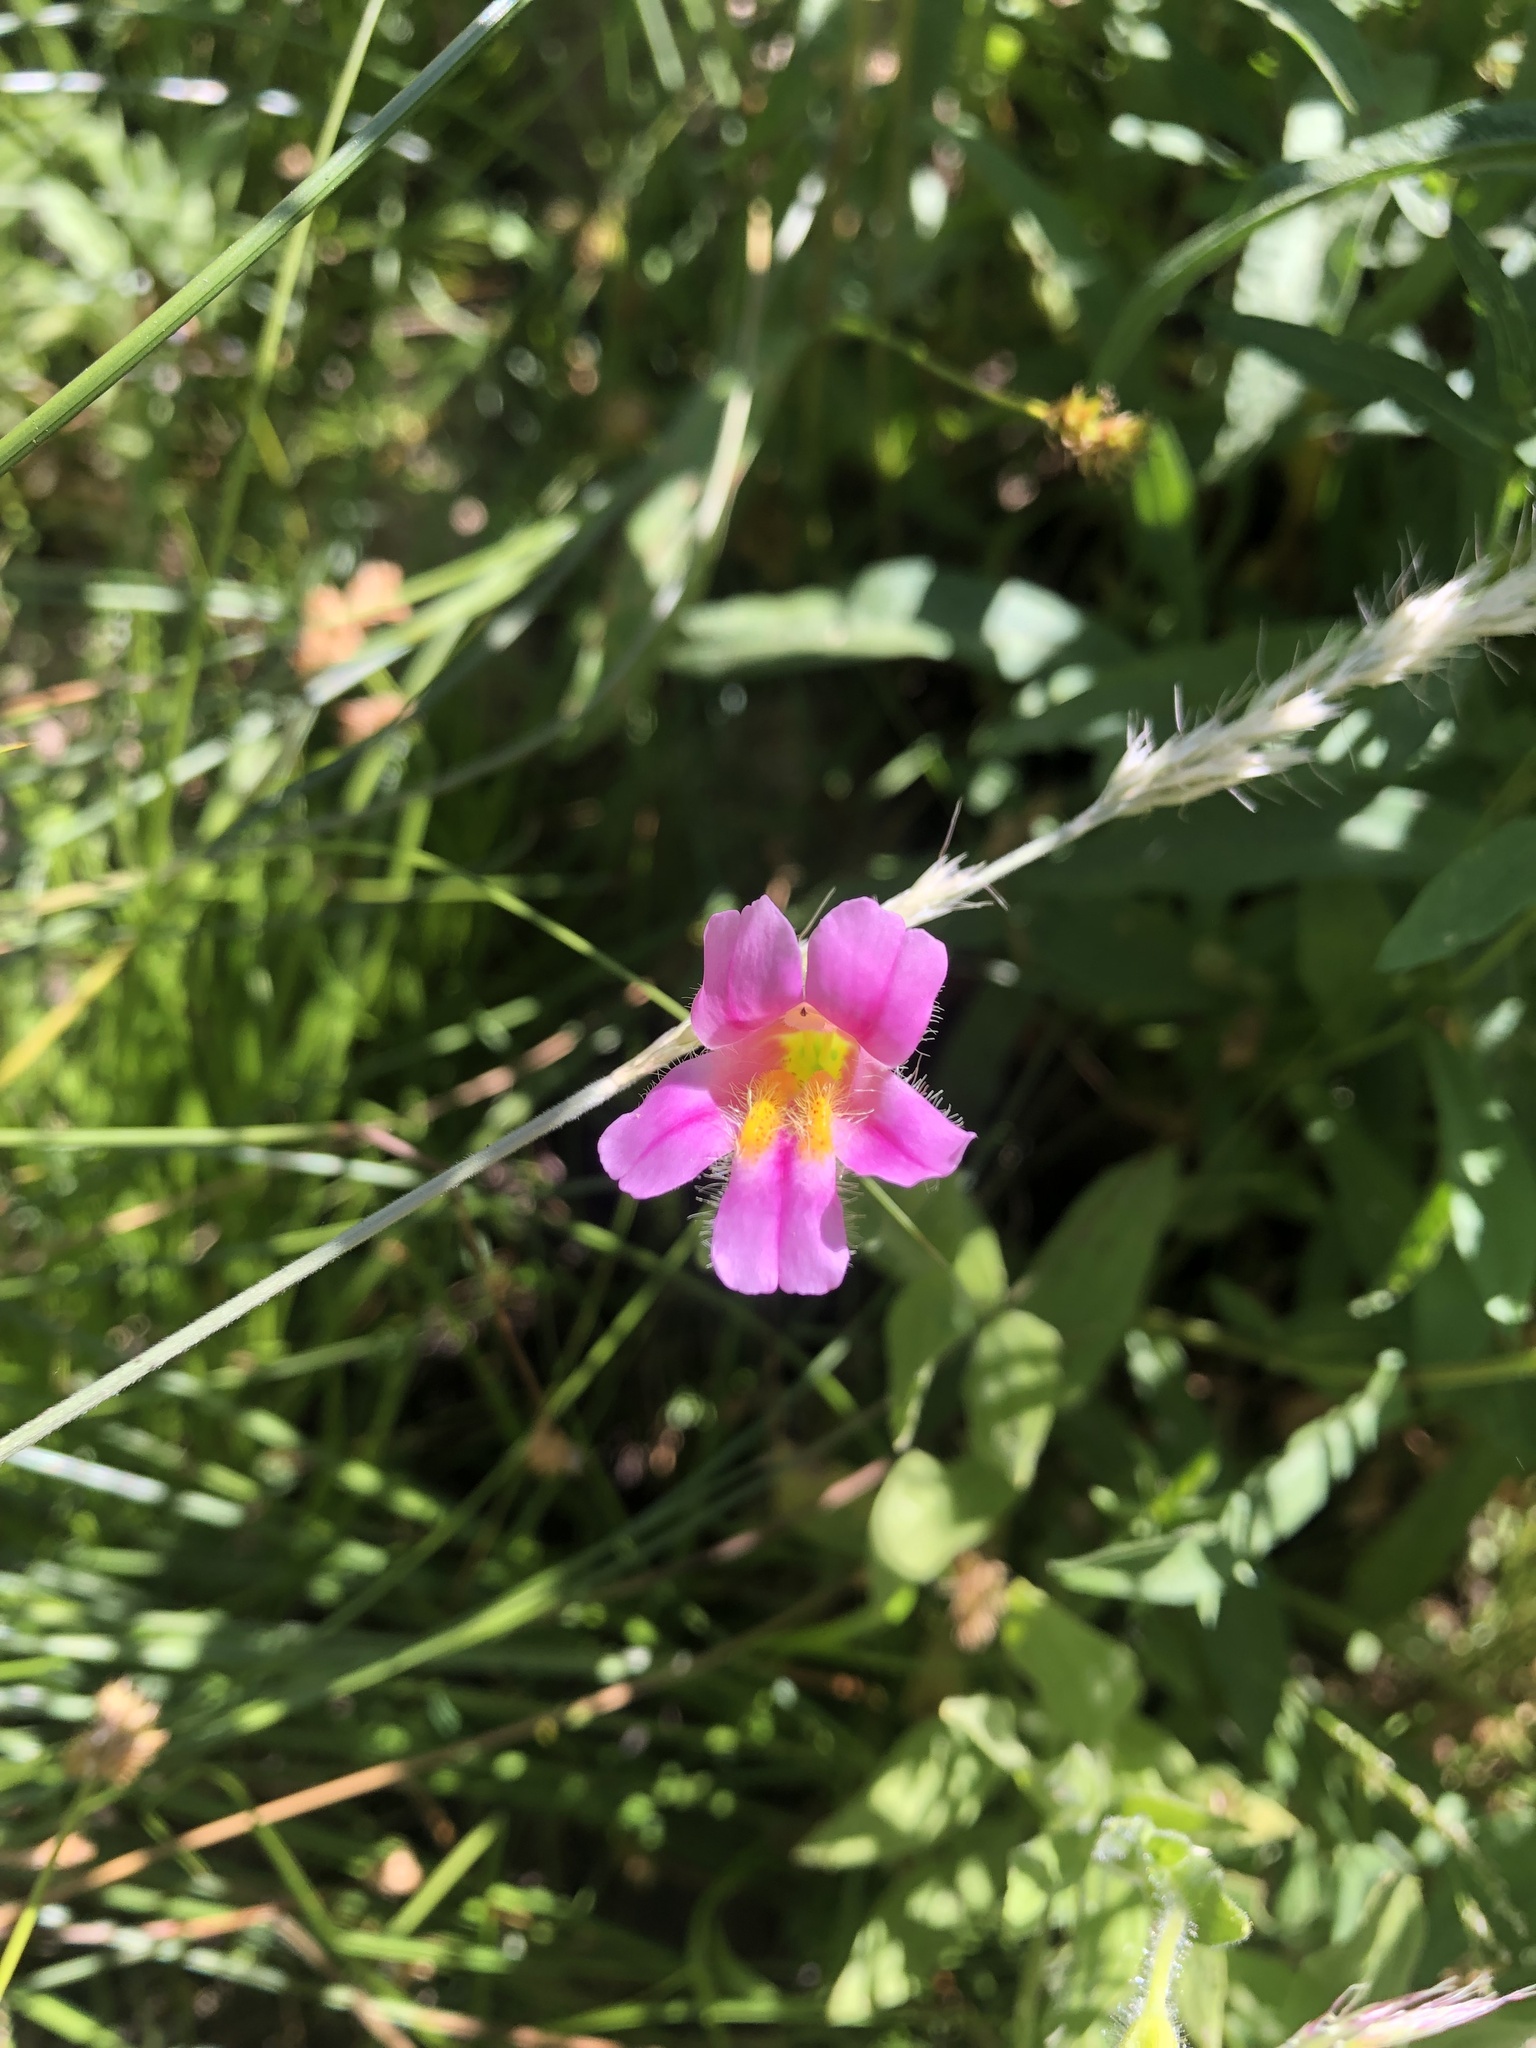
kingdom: Plantae
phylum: Tracheophyta
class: Magnoliopsida
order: Lamiales
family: Phrymaceae
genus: Erythranthe
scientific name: Erythranthe erubescens
